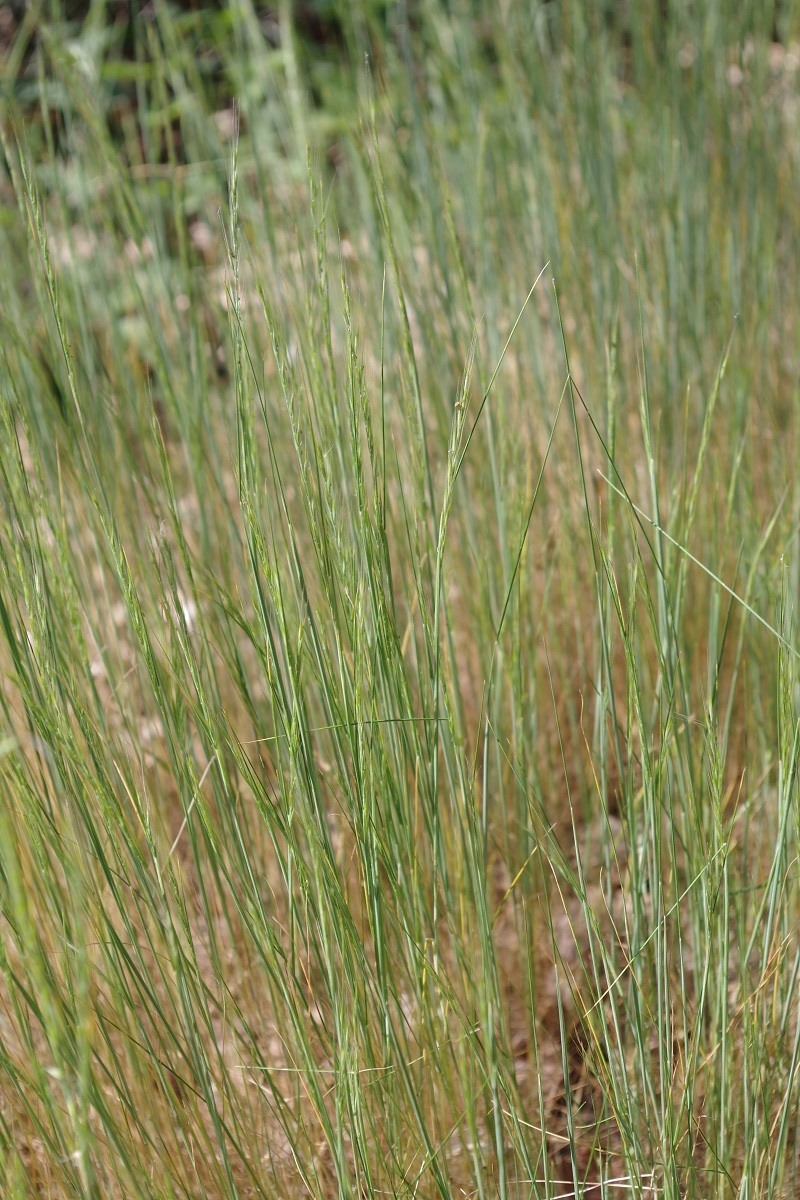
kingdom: Plantae
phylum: Tracheophyta
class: Liliopsida
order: Poales
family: Poaceae
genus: Festuca
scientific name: Festuca myuros
